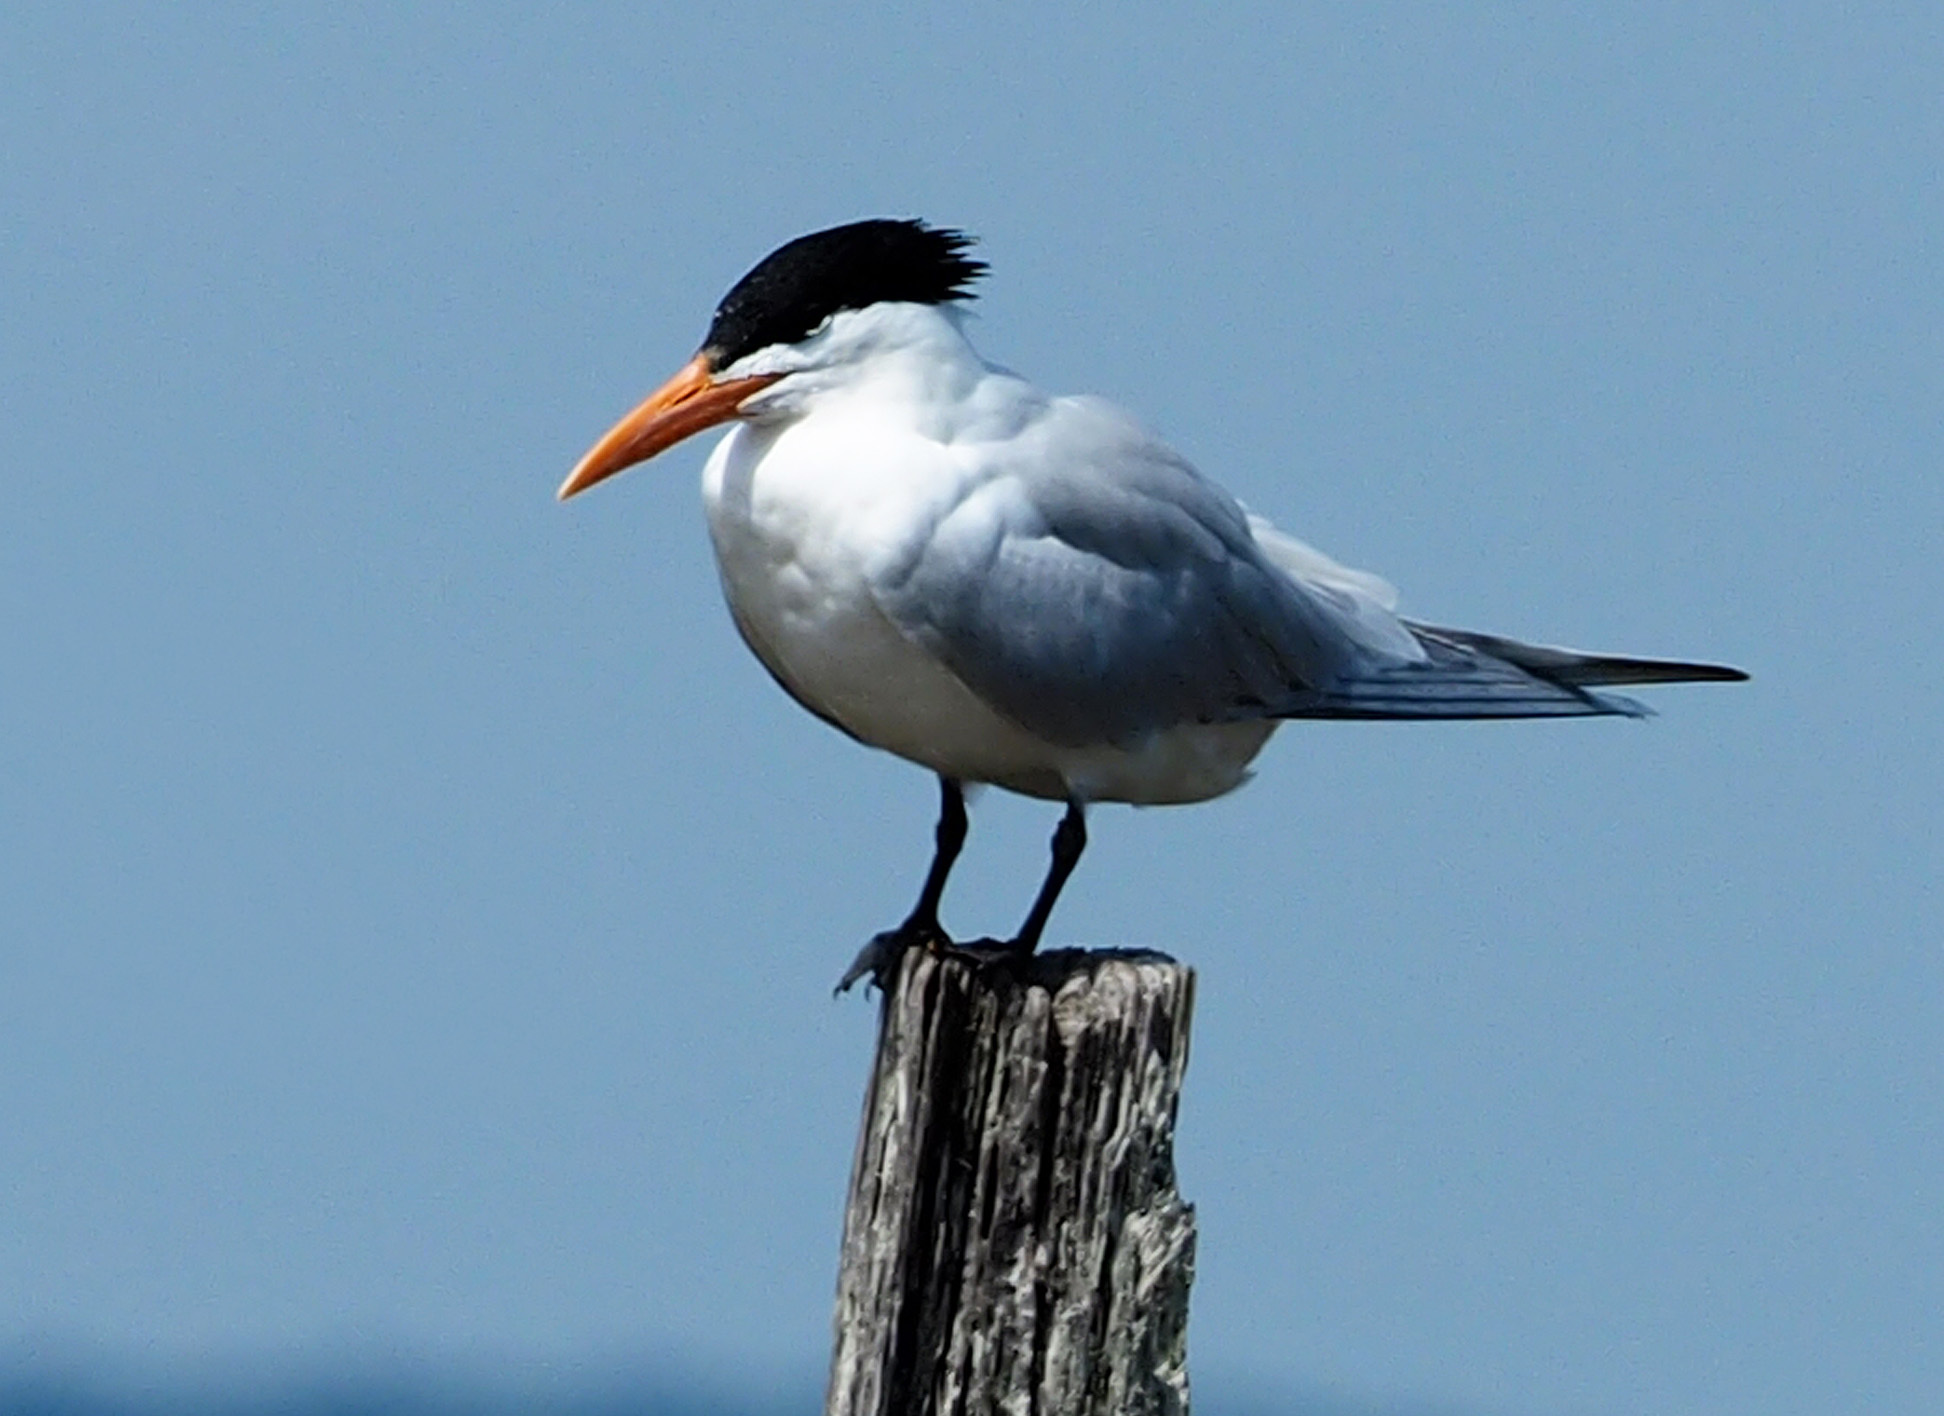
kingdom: Animalia
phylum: Chordata
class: Aves
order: Charadriiformes
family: Laridae
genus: Thalasseus
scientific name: Thalasseus maximus
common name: Royal tern
